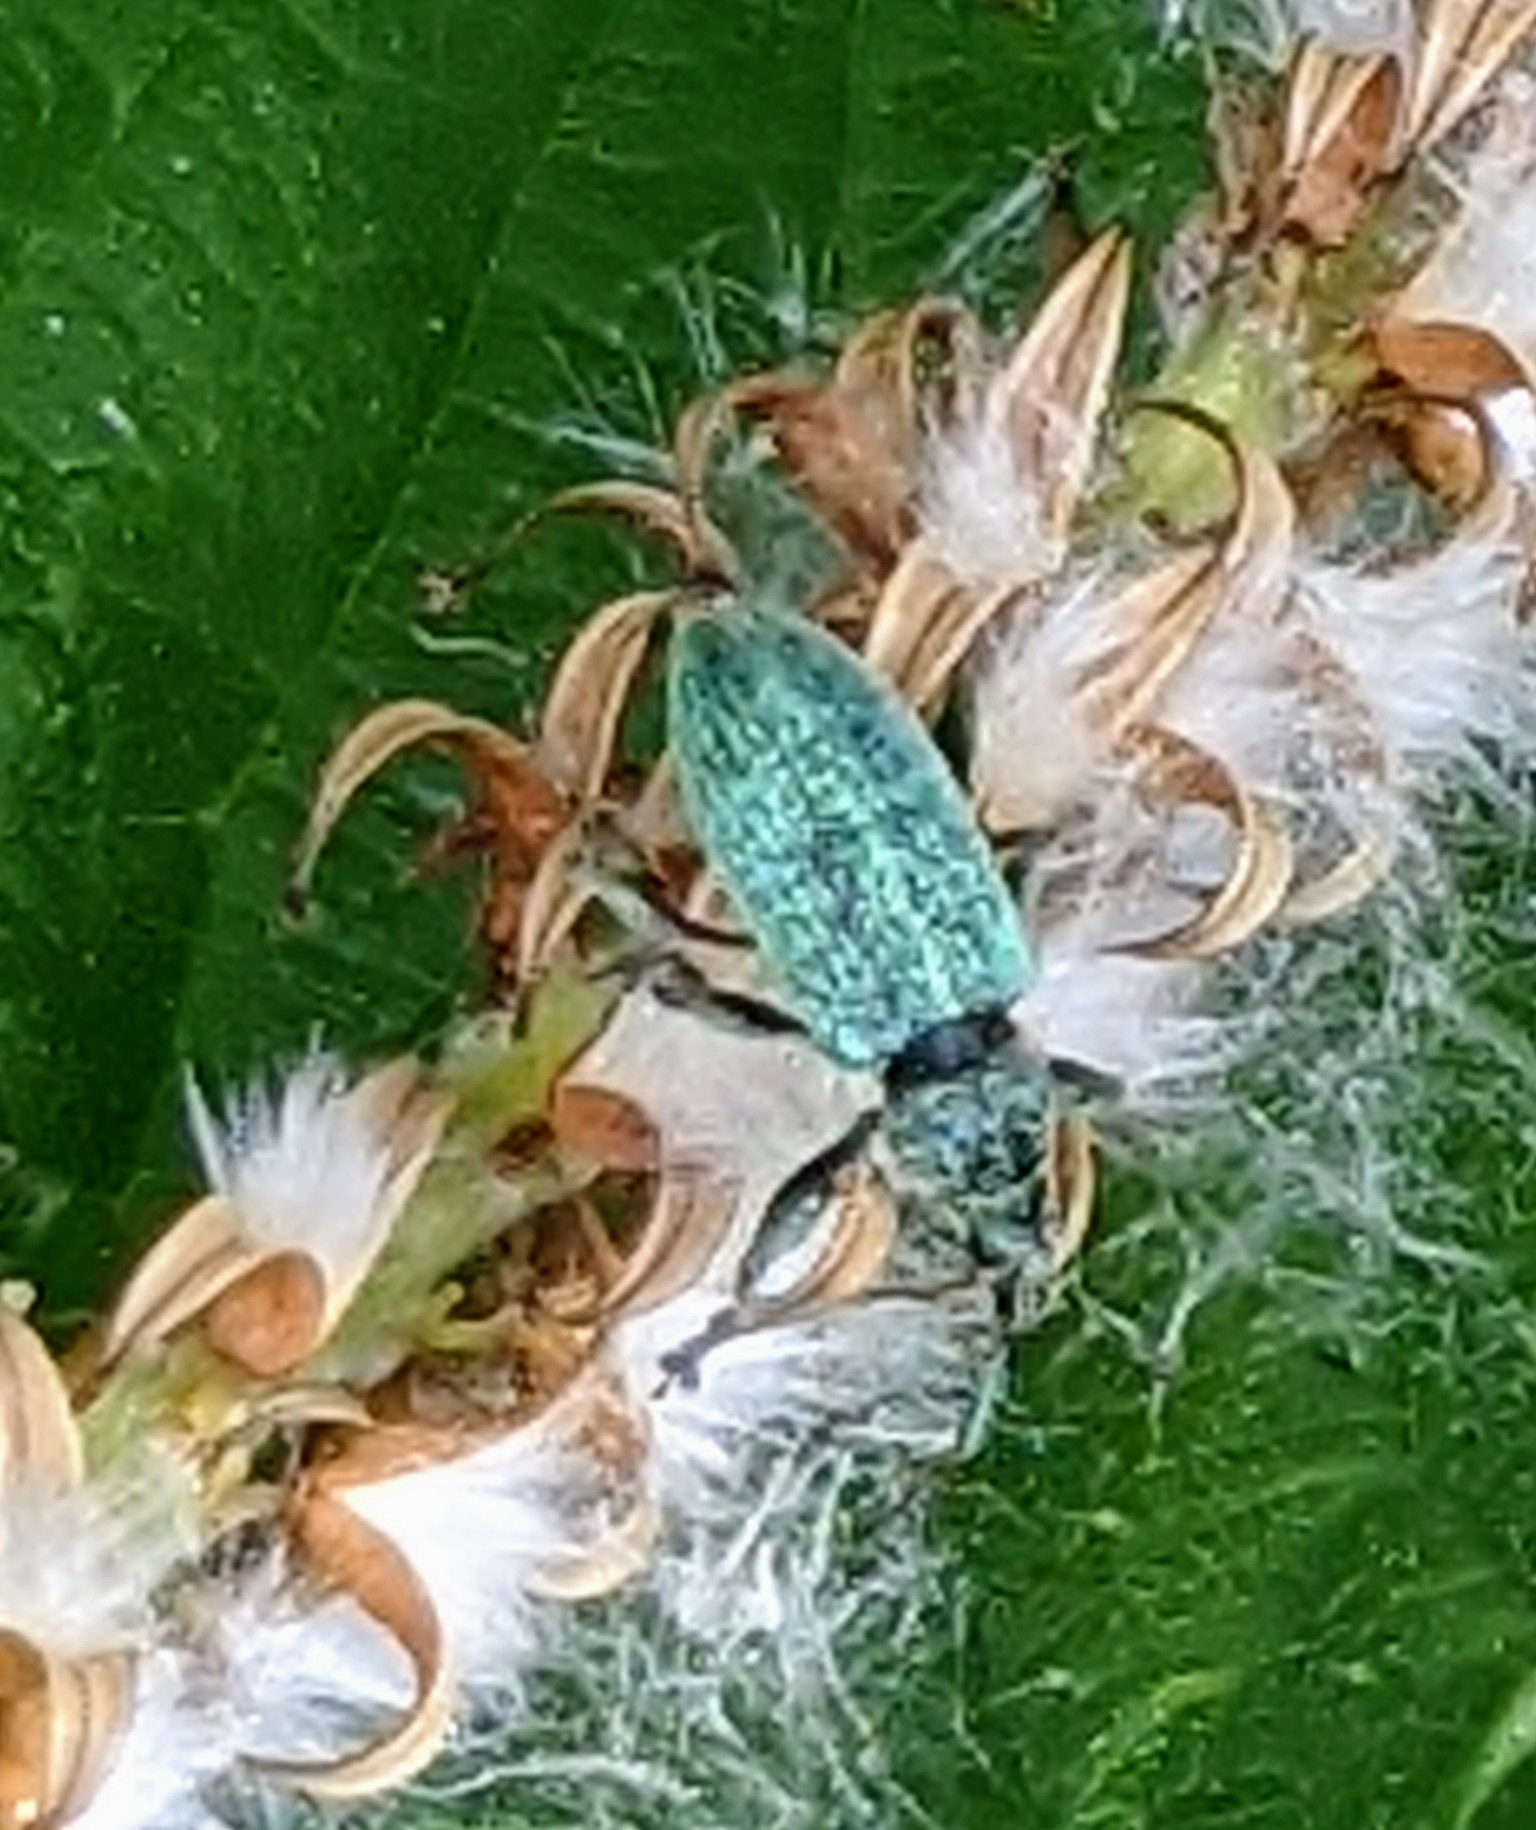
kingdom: Animalia
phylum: Arthropoda
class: Insecta
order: Coleoptera
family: Curculionidae
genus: Phyllobius
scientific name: Phyllobius pomaceus
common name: Green nettle weevil
